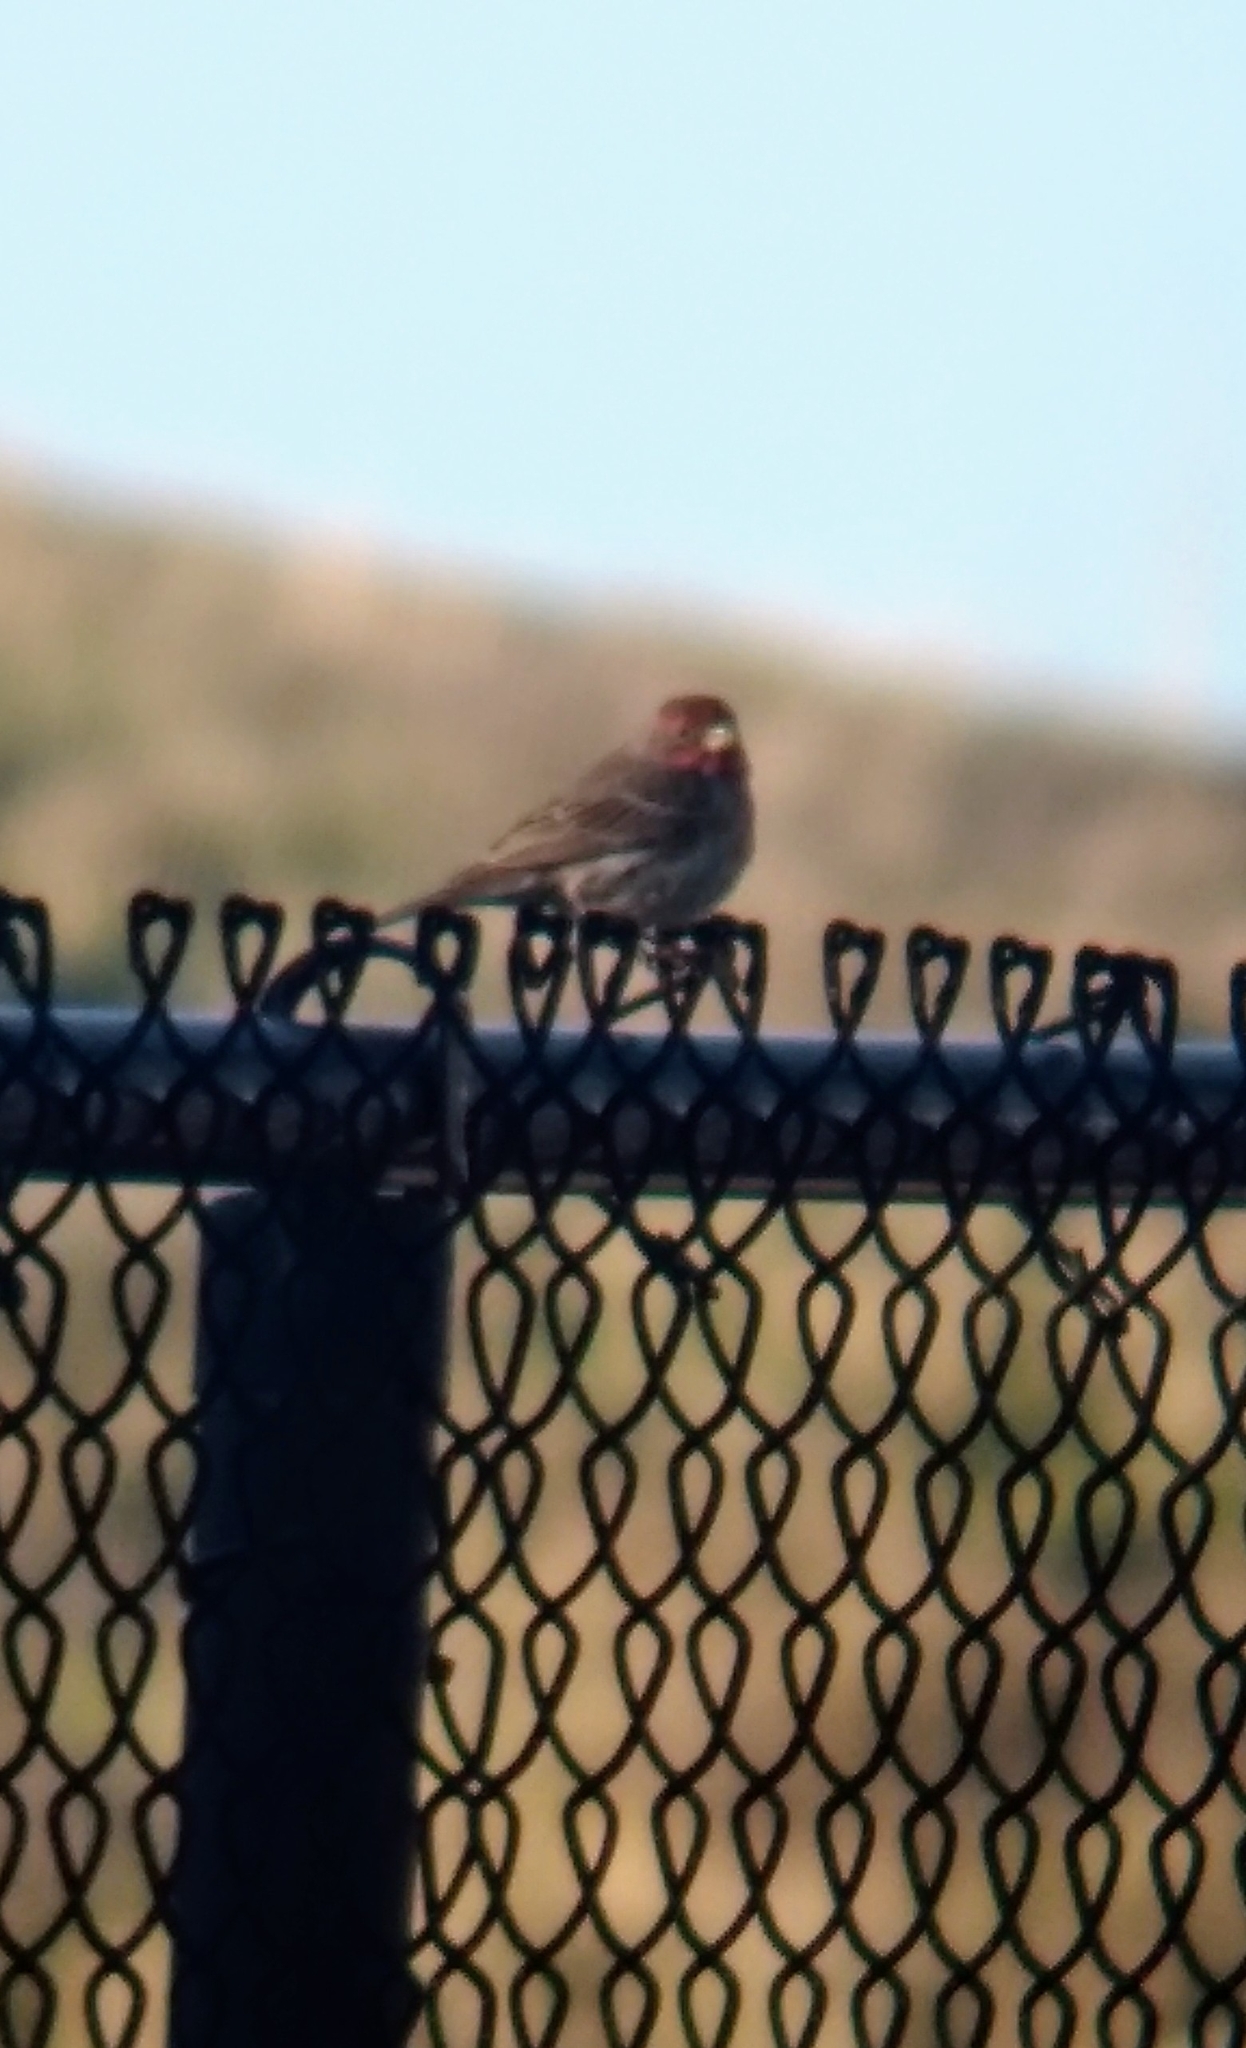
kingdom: Animalia
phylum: Chordata
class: Aves
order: Passeriformes
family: Fringillidae
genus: Haemorhous
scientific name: Haemorhous mexicanus
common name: House finch
